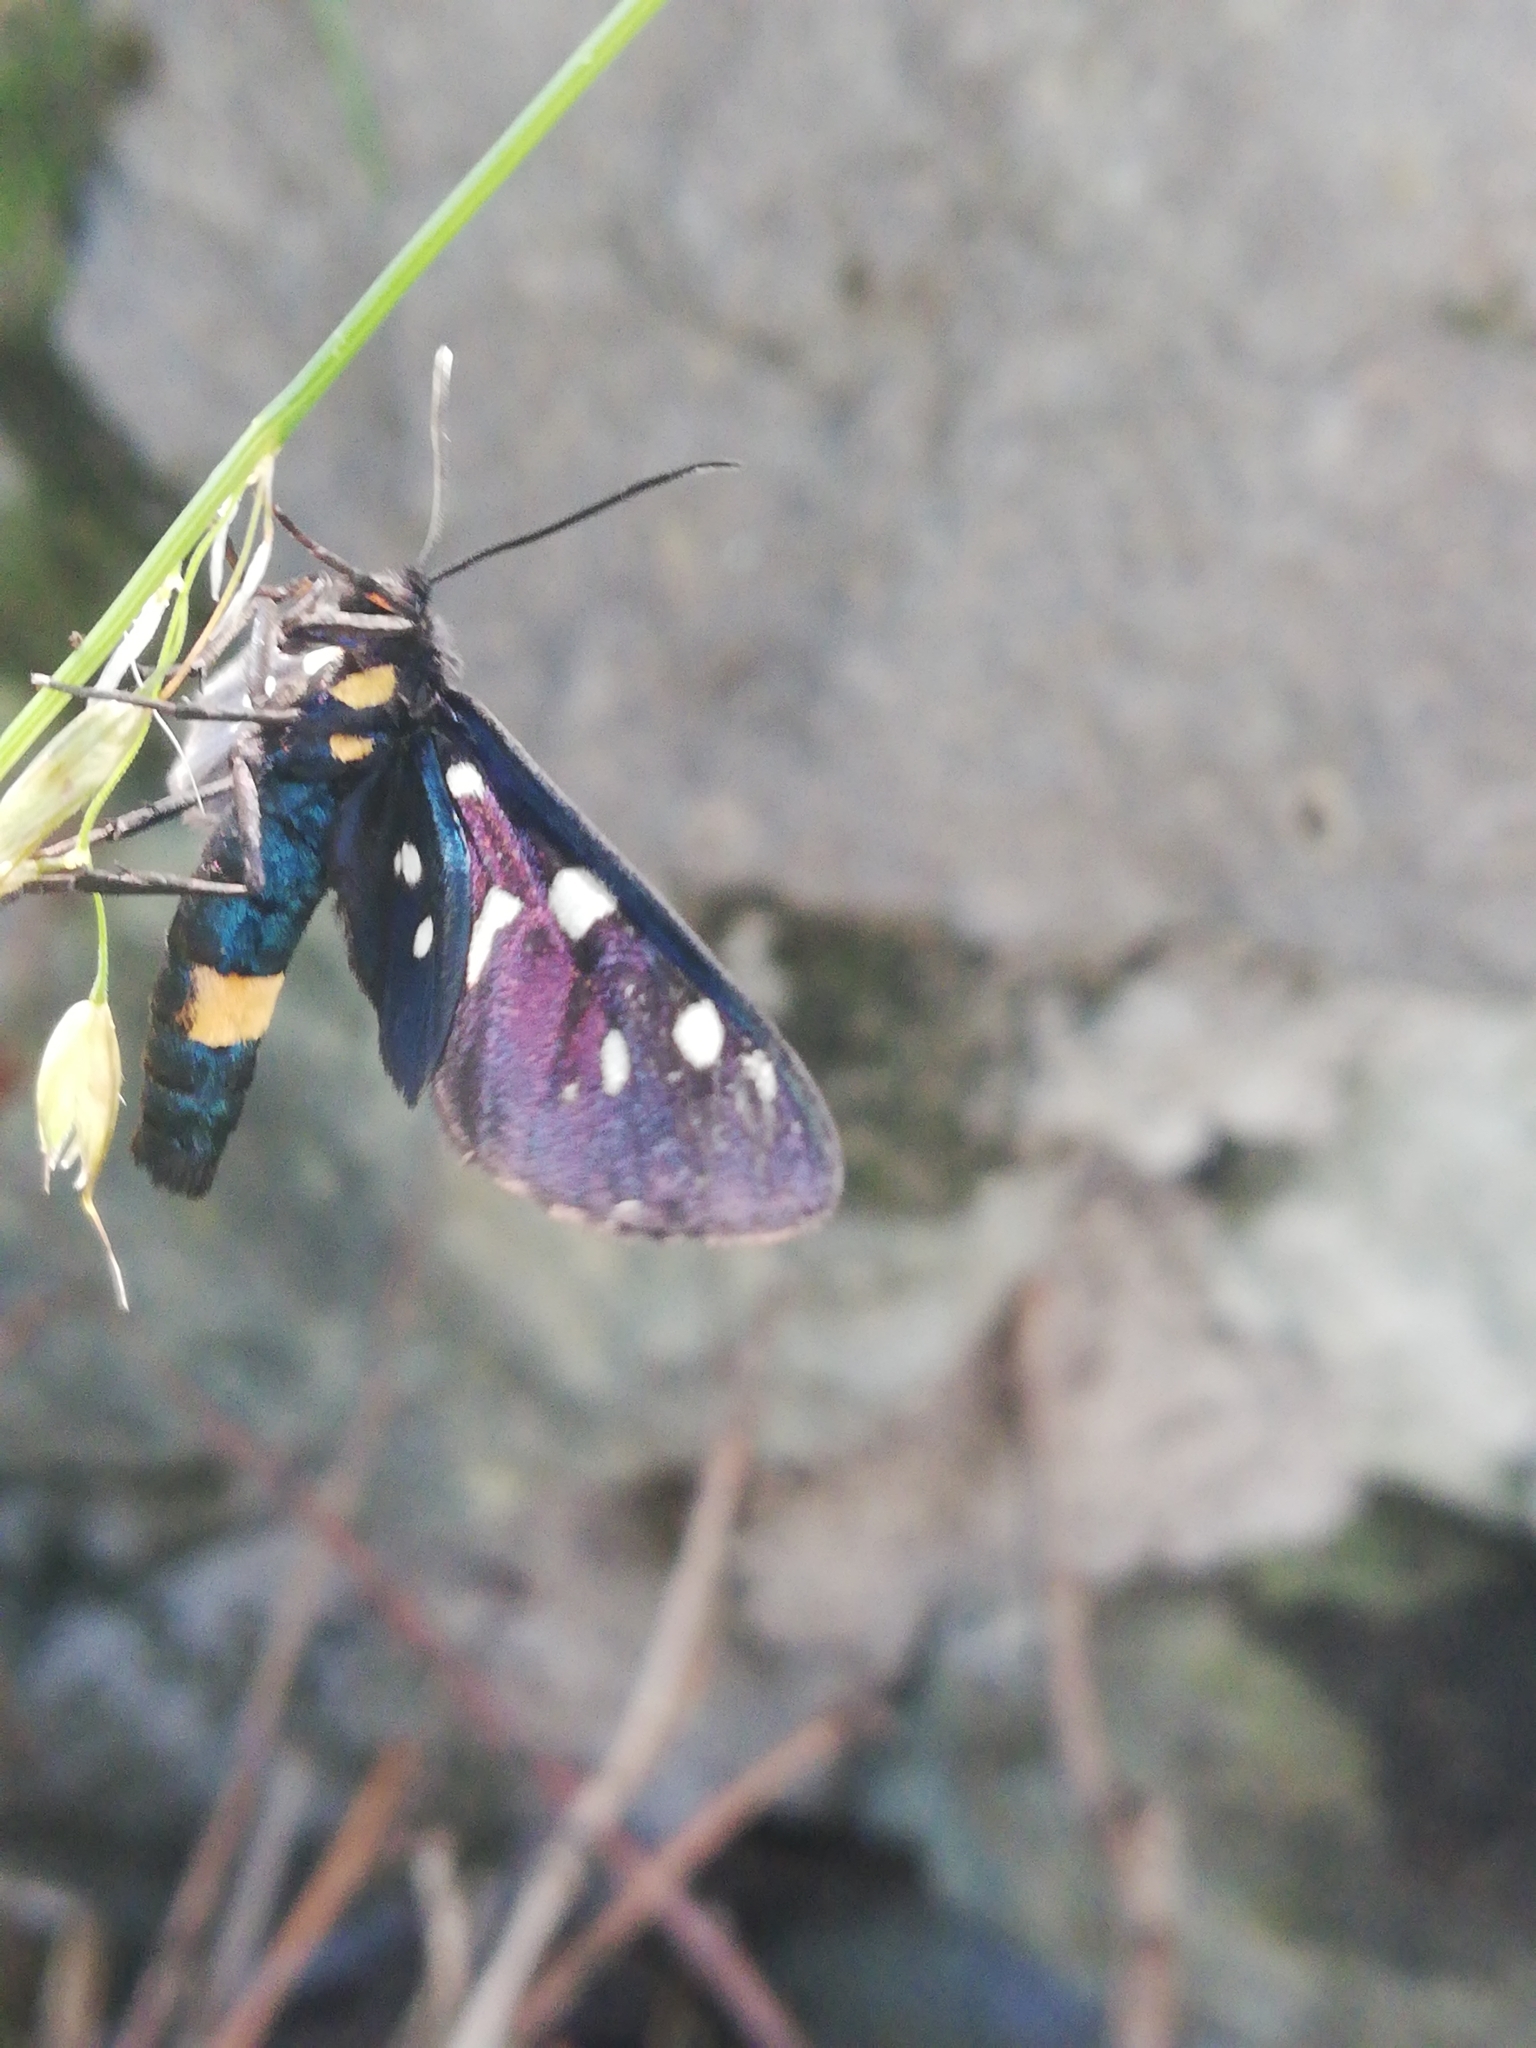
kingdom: Animalia
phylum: Arthropoda
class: Insecta
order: Lepidoptera
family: Erebidae
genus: Amata
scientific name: Amata phegea
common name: Nine-spotted
